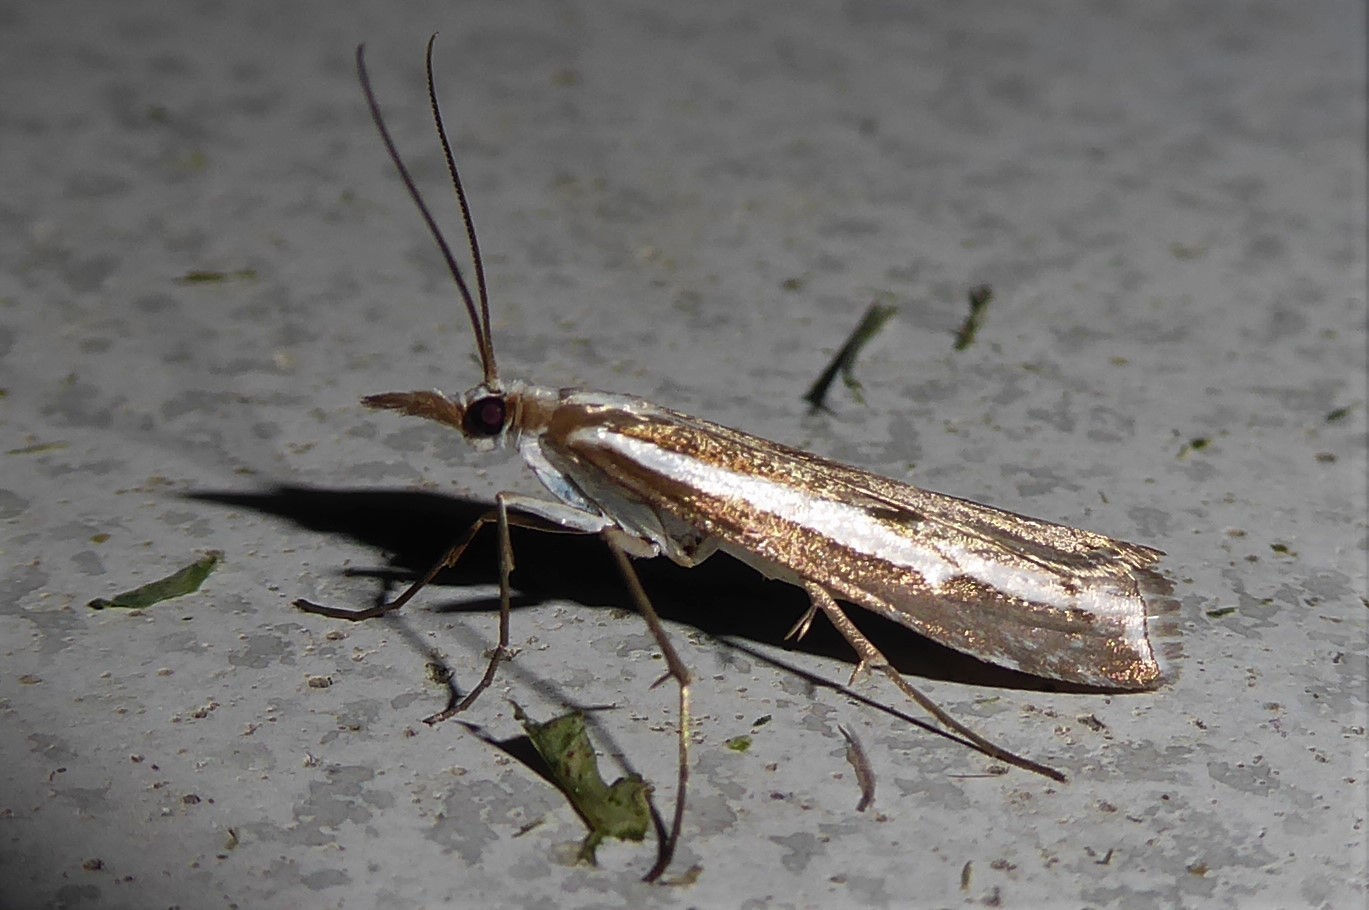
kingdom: Animalia
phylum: Arthropoda
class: Insecta
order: Lepidoptera
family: Crambidae
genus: Orocrambus
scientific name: Orocrambus vittellus
